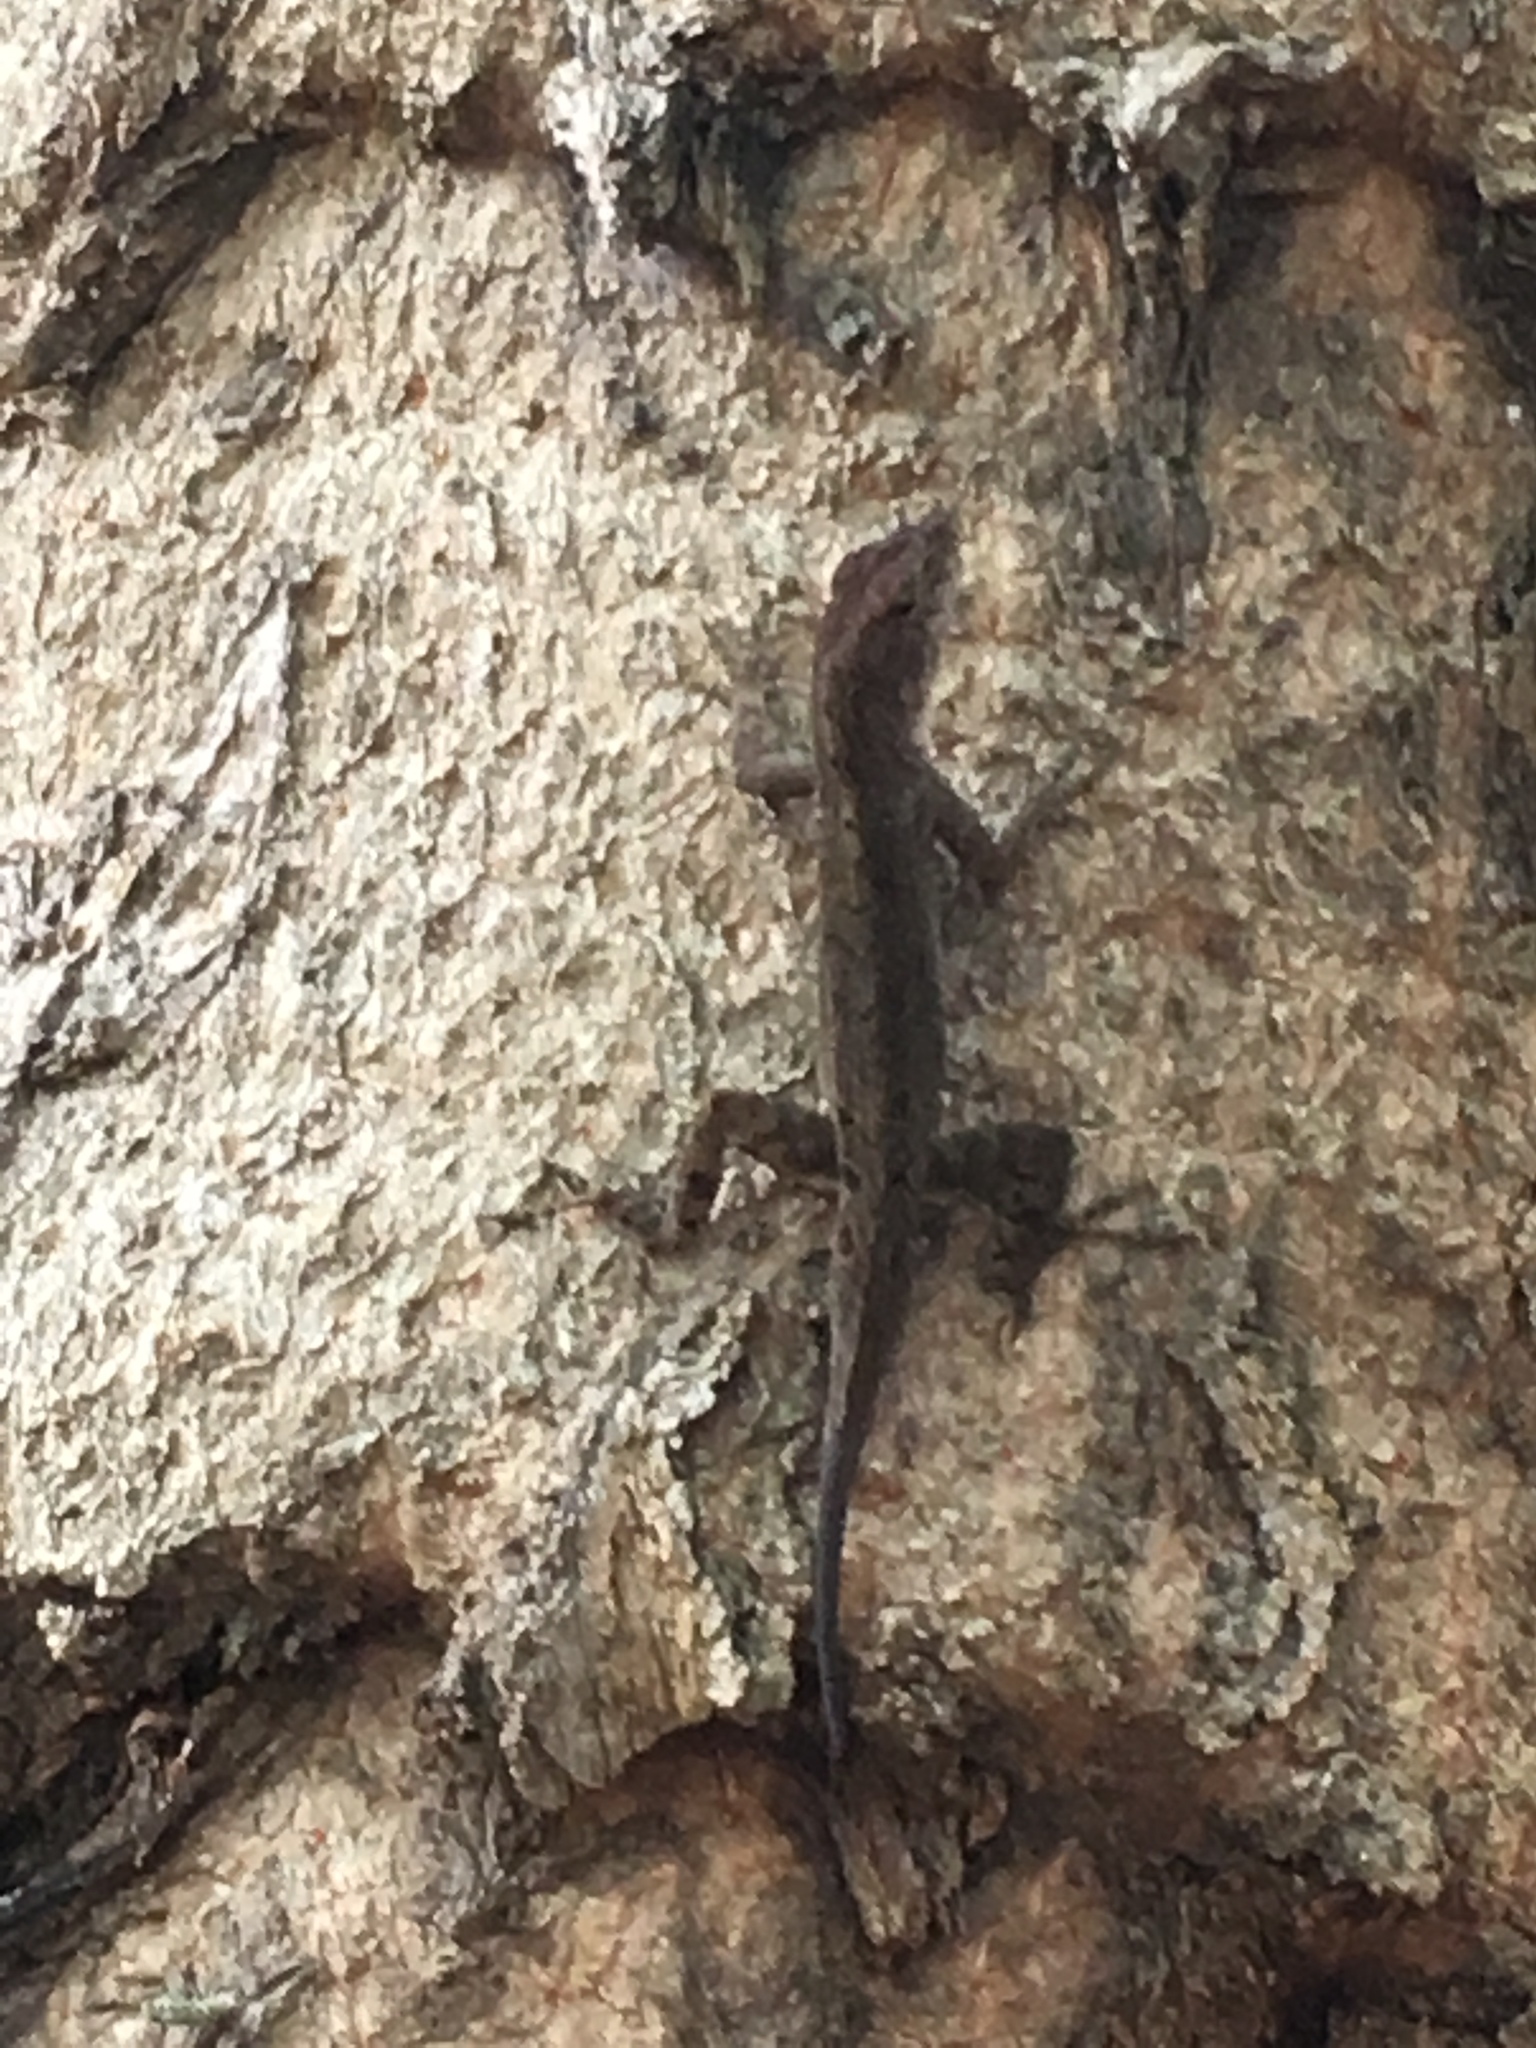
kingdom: Animalia
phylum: Chordata
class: Squamata
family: Dactyloidae
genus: Anolis
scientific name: Anolis sagrei
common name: Brown anole
